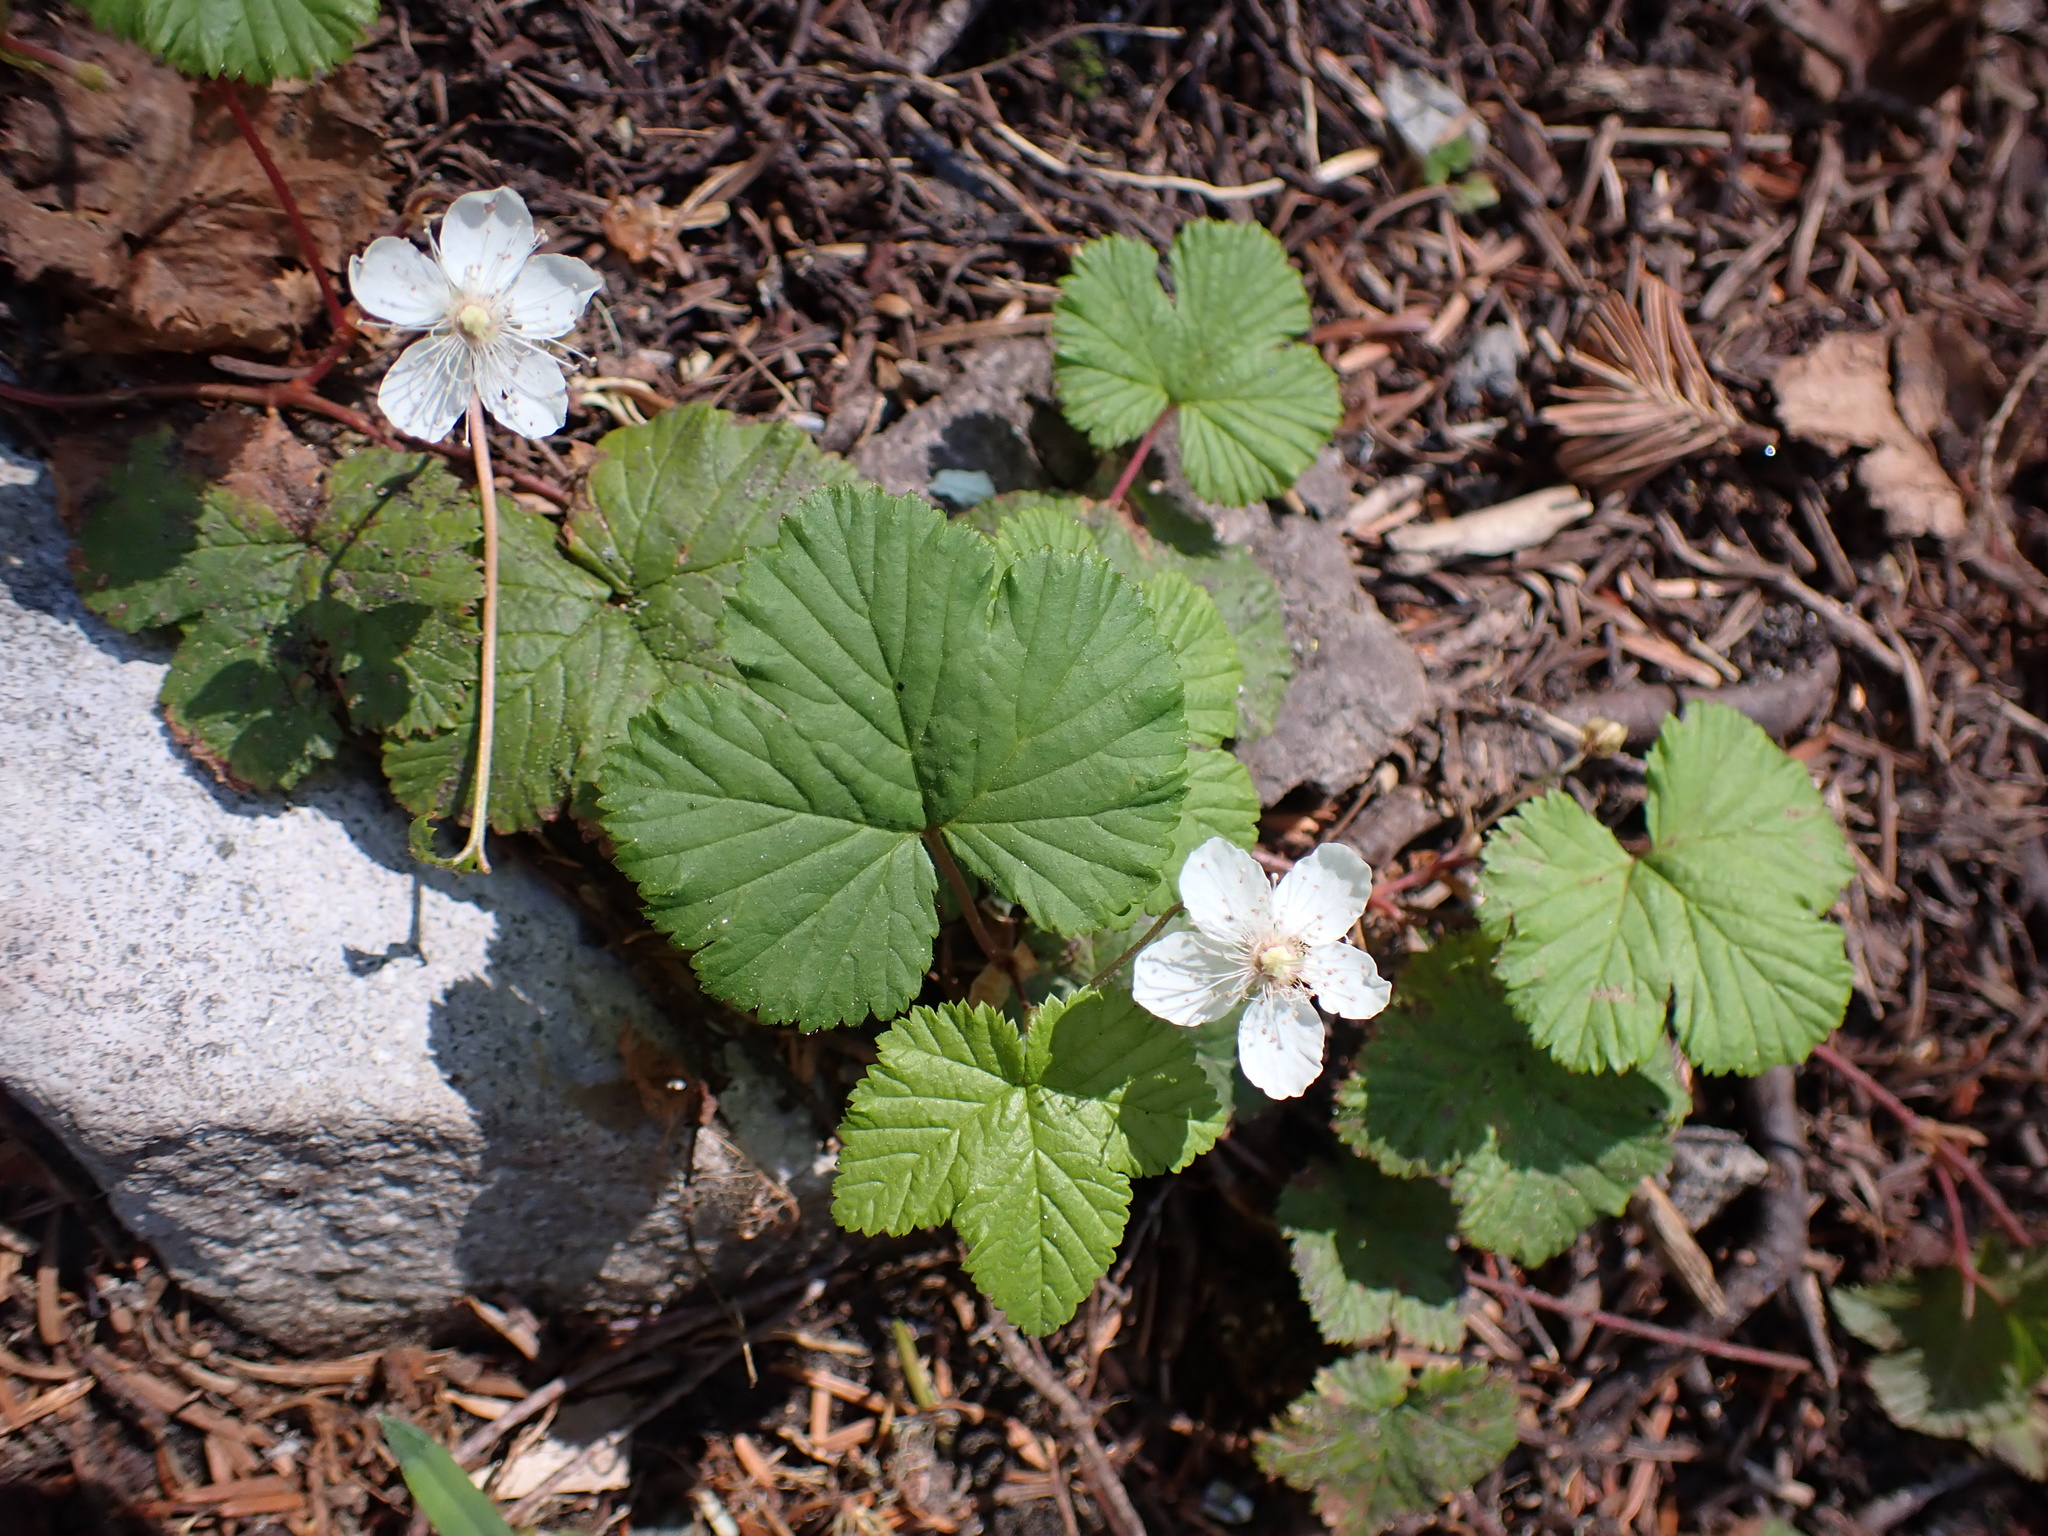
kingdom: Plantae
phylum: Tracheophyta
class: Magnoliopsida
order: Rosales
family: Rosaceae
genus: Rubus
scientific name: Rubus lasiococcus
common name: Dwarf bramble
